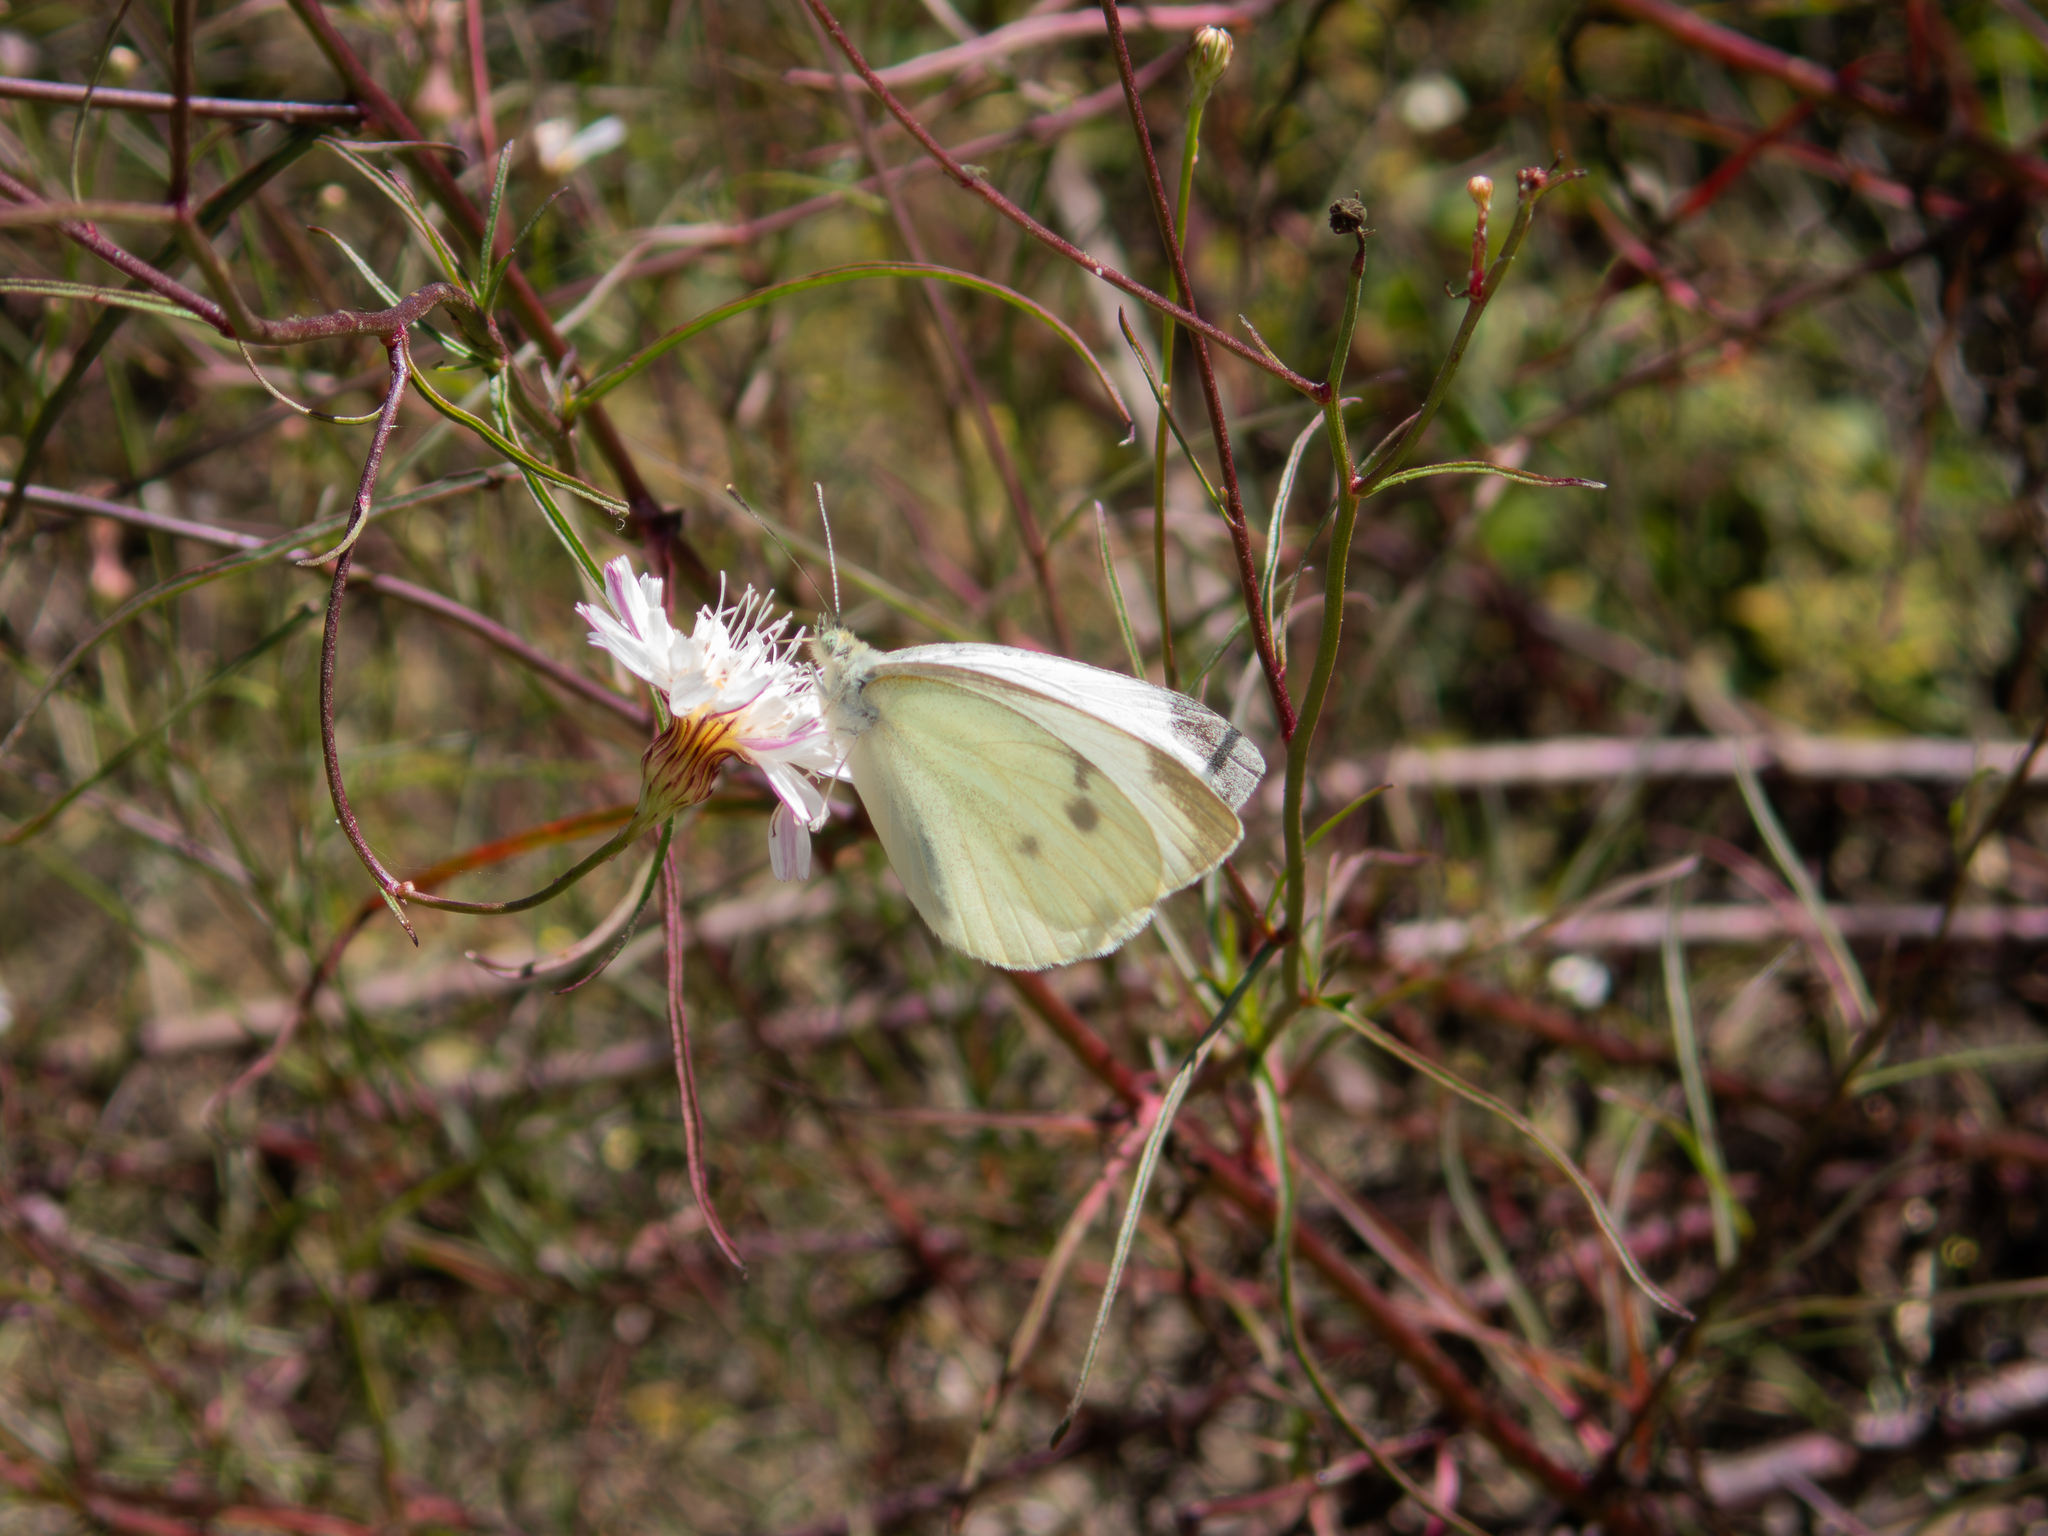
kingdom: Animalia
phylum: Arthropoda
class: Insecta
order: Lepidoptera
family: Pieridae
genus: Pieris
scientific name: Pieris rapae
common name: Small white
